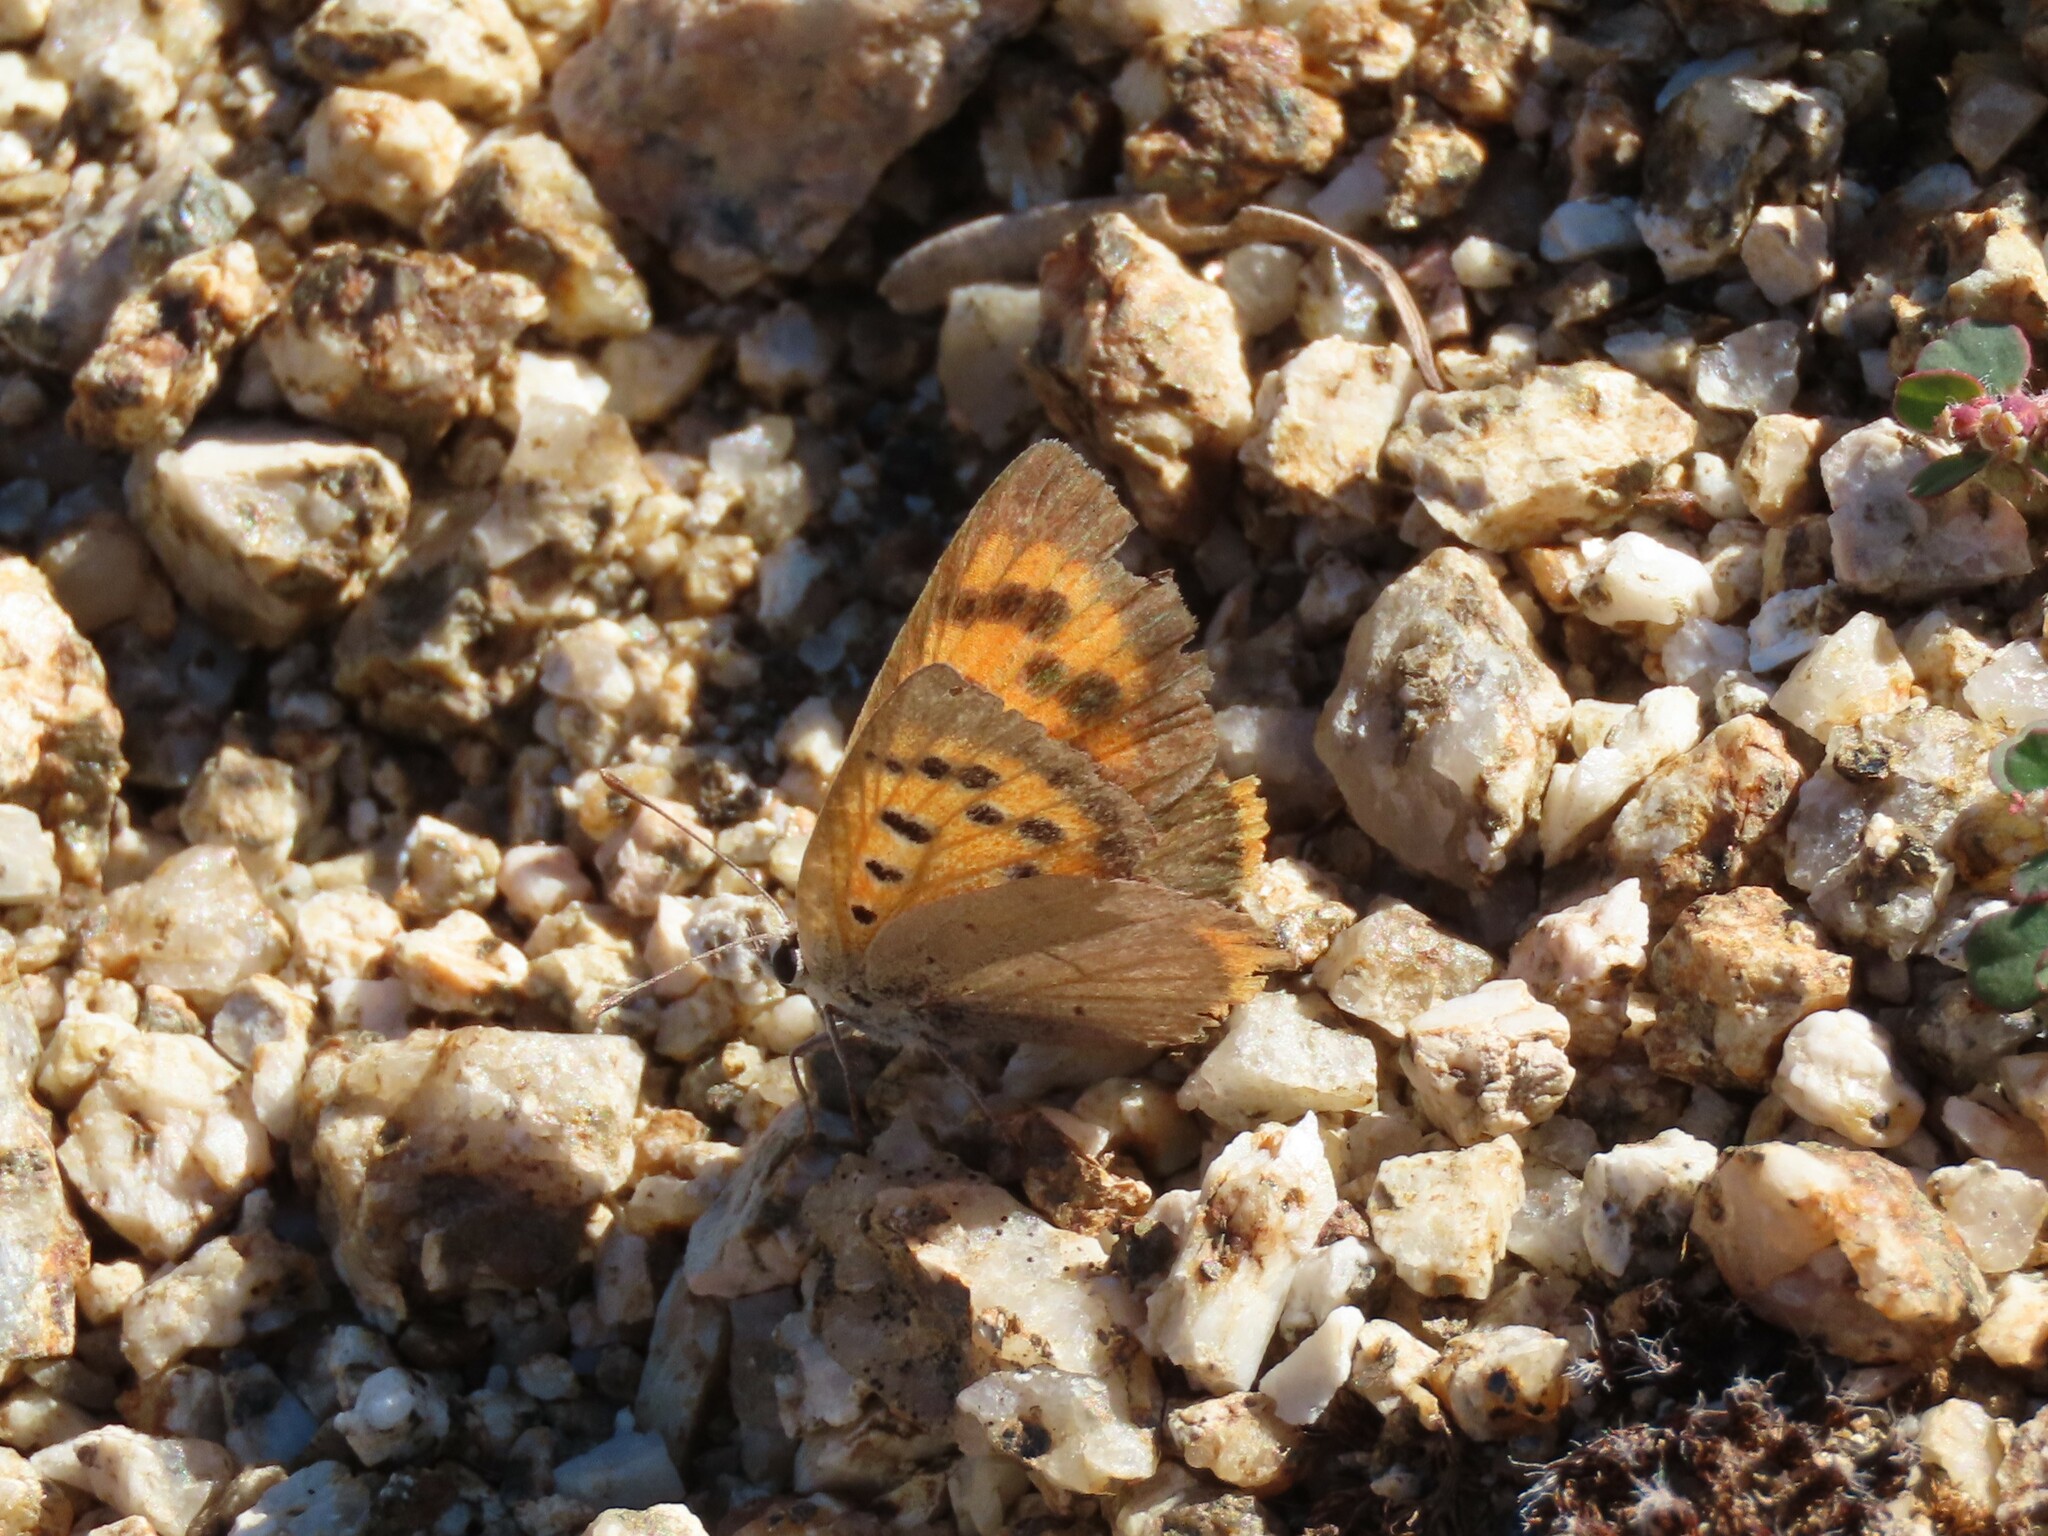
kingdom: Animalia
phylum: Arthropoda
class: Insecta
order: Lepidoptera
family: Lycaenidae
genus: Lycaena
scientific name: Lycaena phlaeas
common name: Small copper
